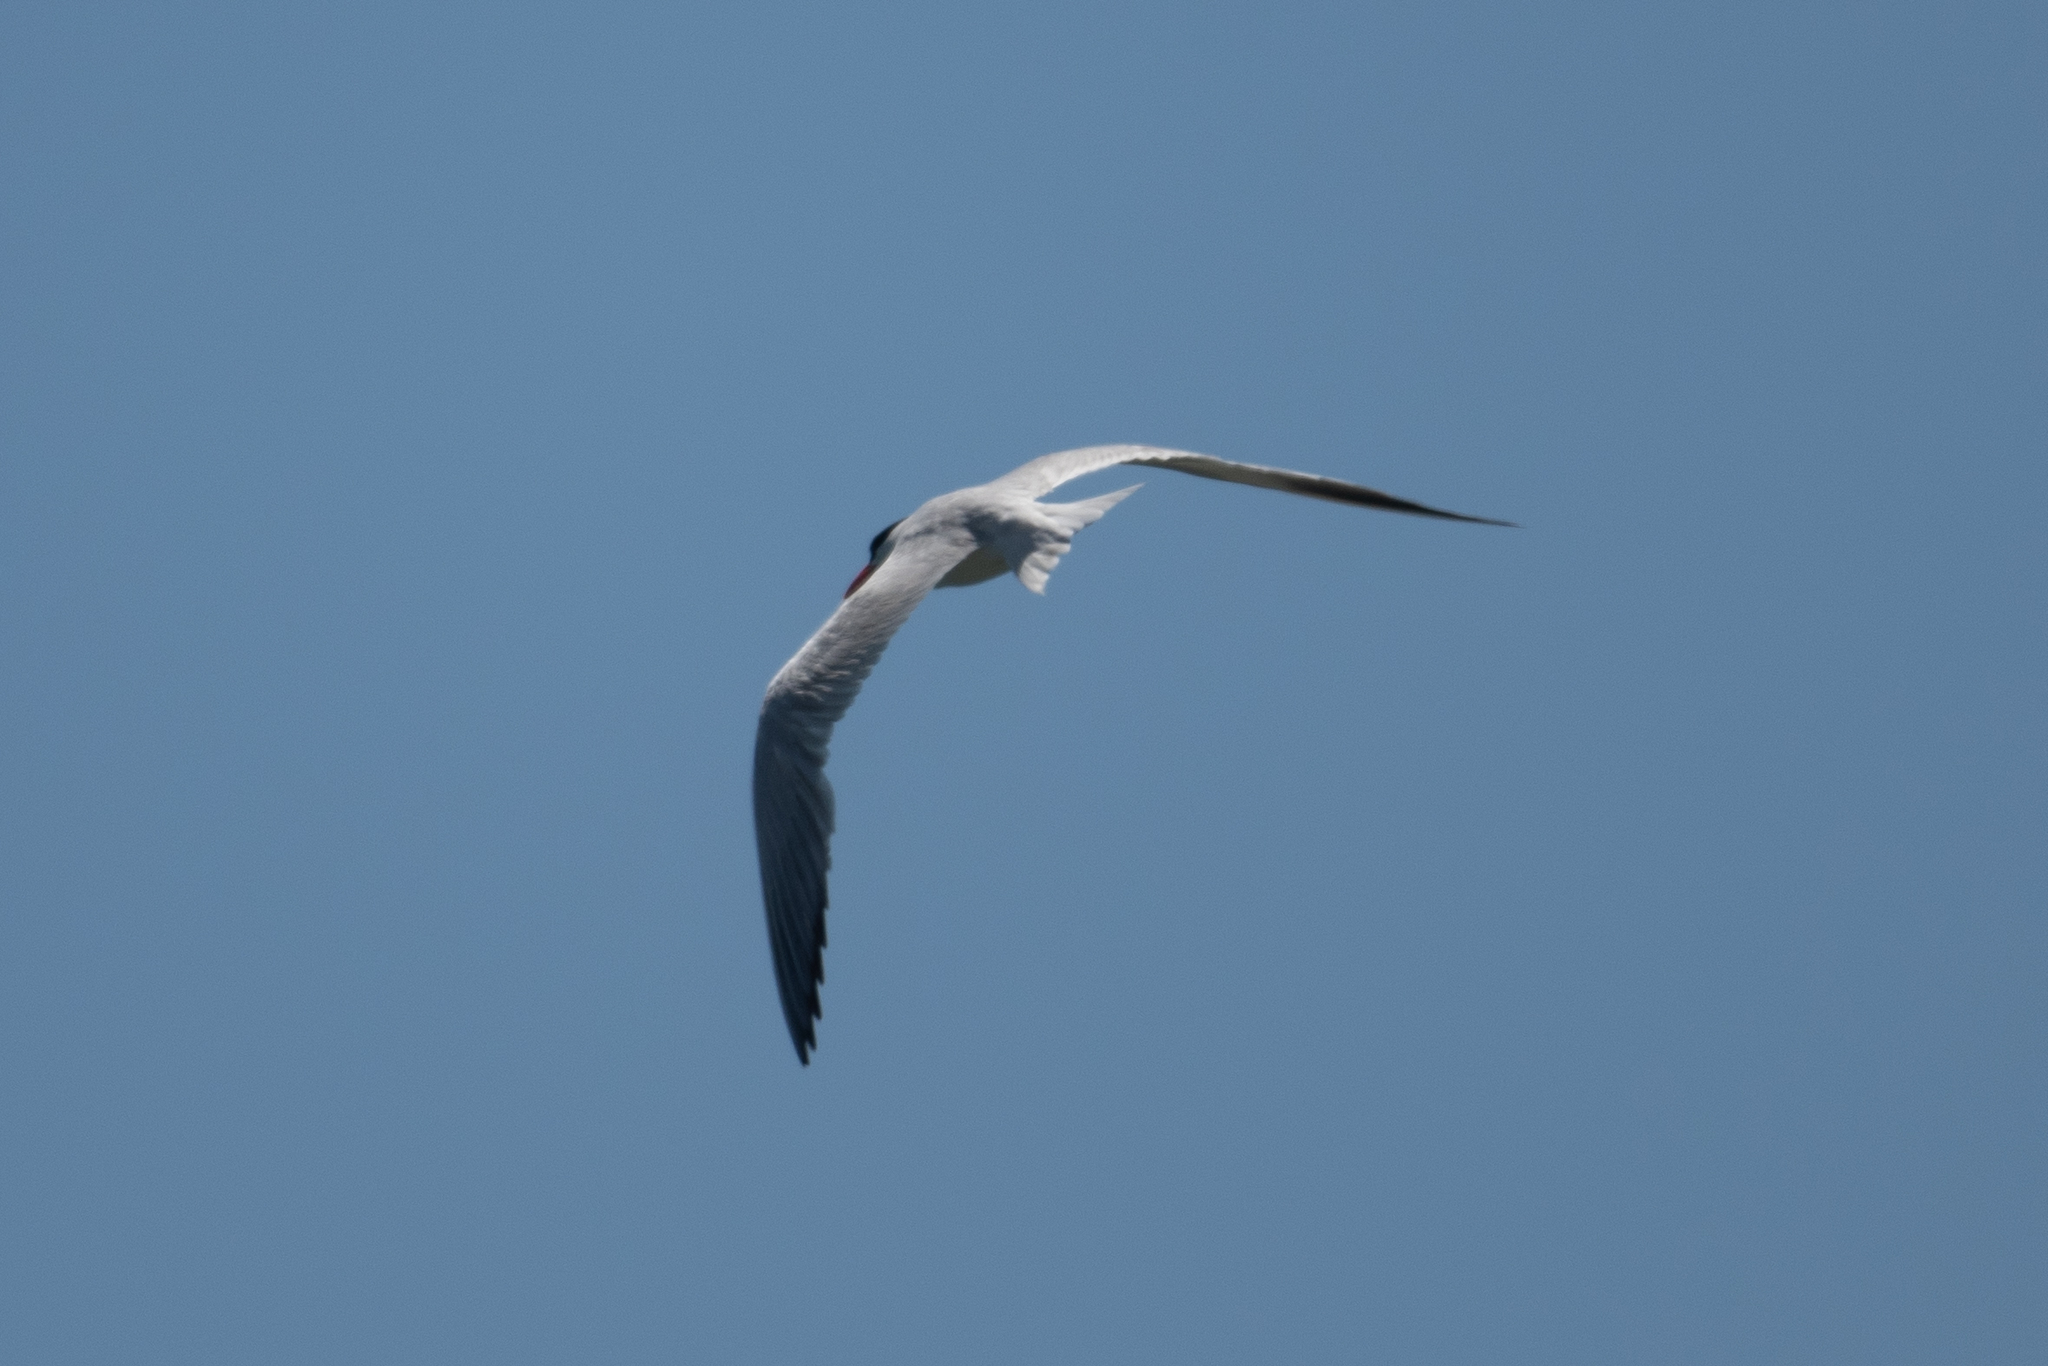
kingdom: Animalia
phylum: Chordata
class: Aves
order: Charadriiformes
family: Laridae
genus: Hydroprogne
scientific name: Hydroprogne caspia
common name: Caspian tern
